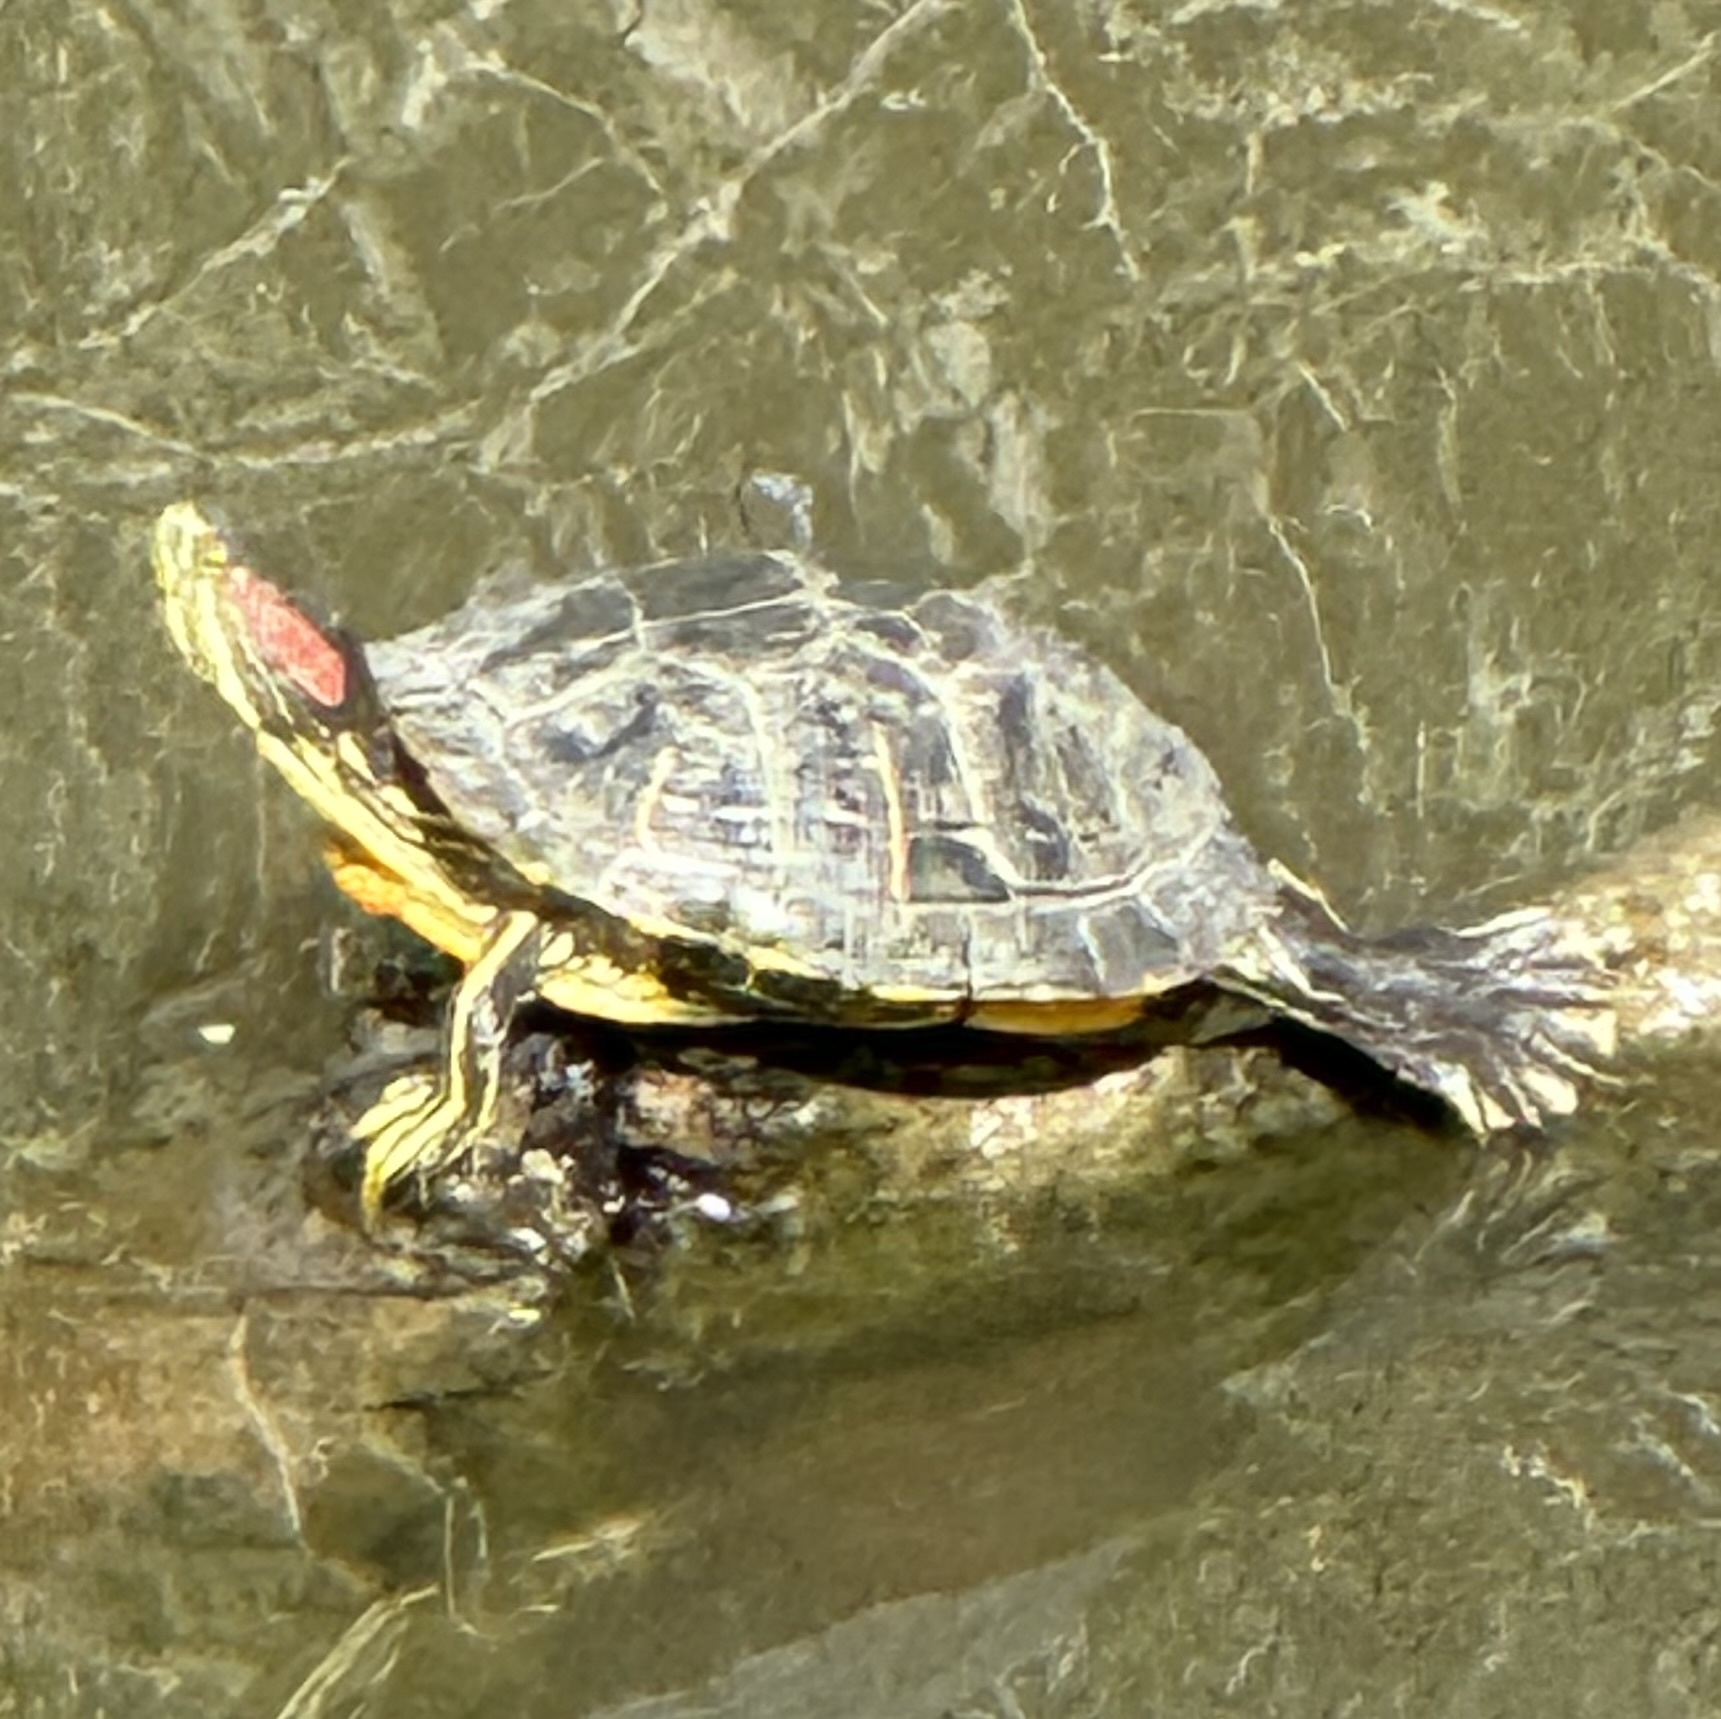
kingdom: Animalia
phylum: Chordata
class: Testudines
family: Emydidae
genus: Trachemys
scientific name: Trachemys scripta
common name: Slider
